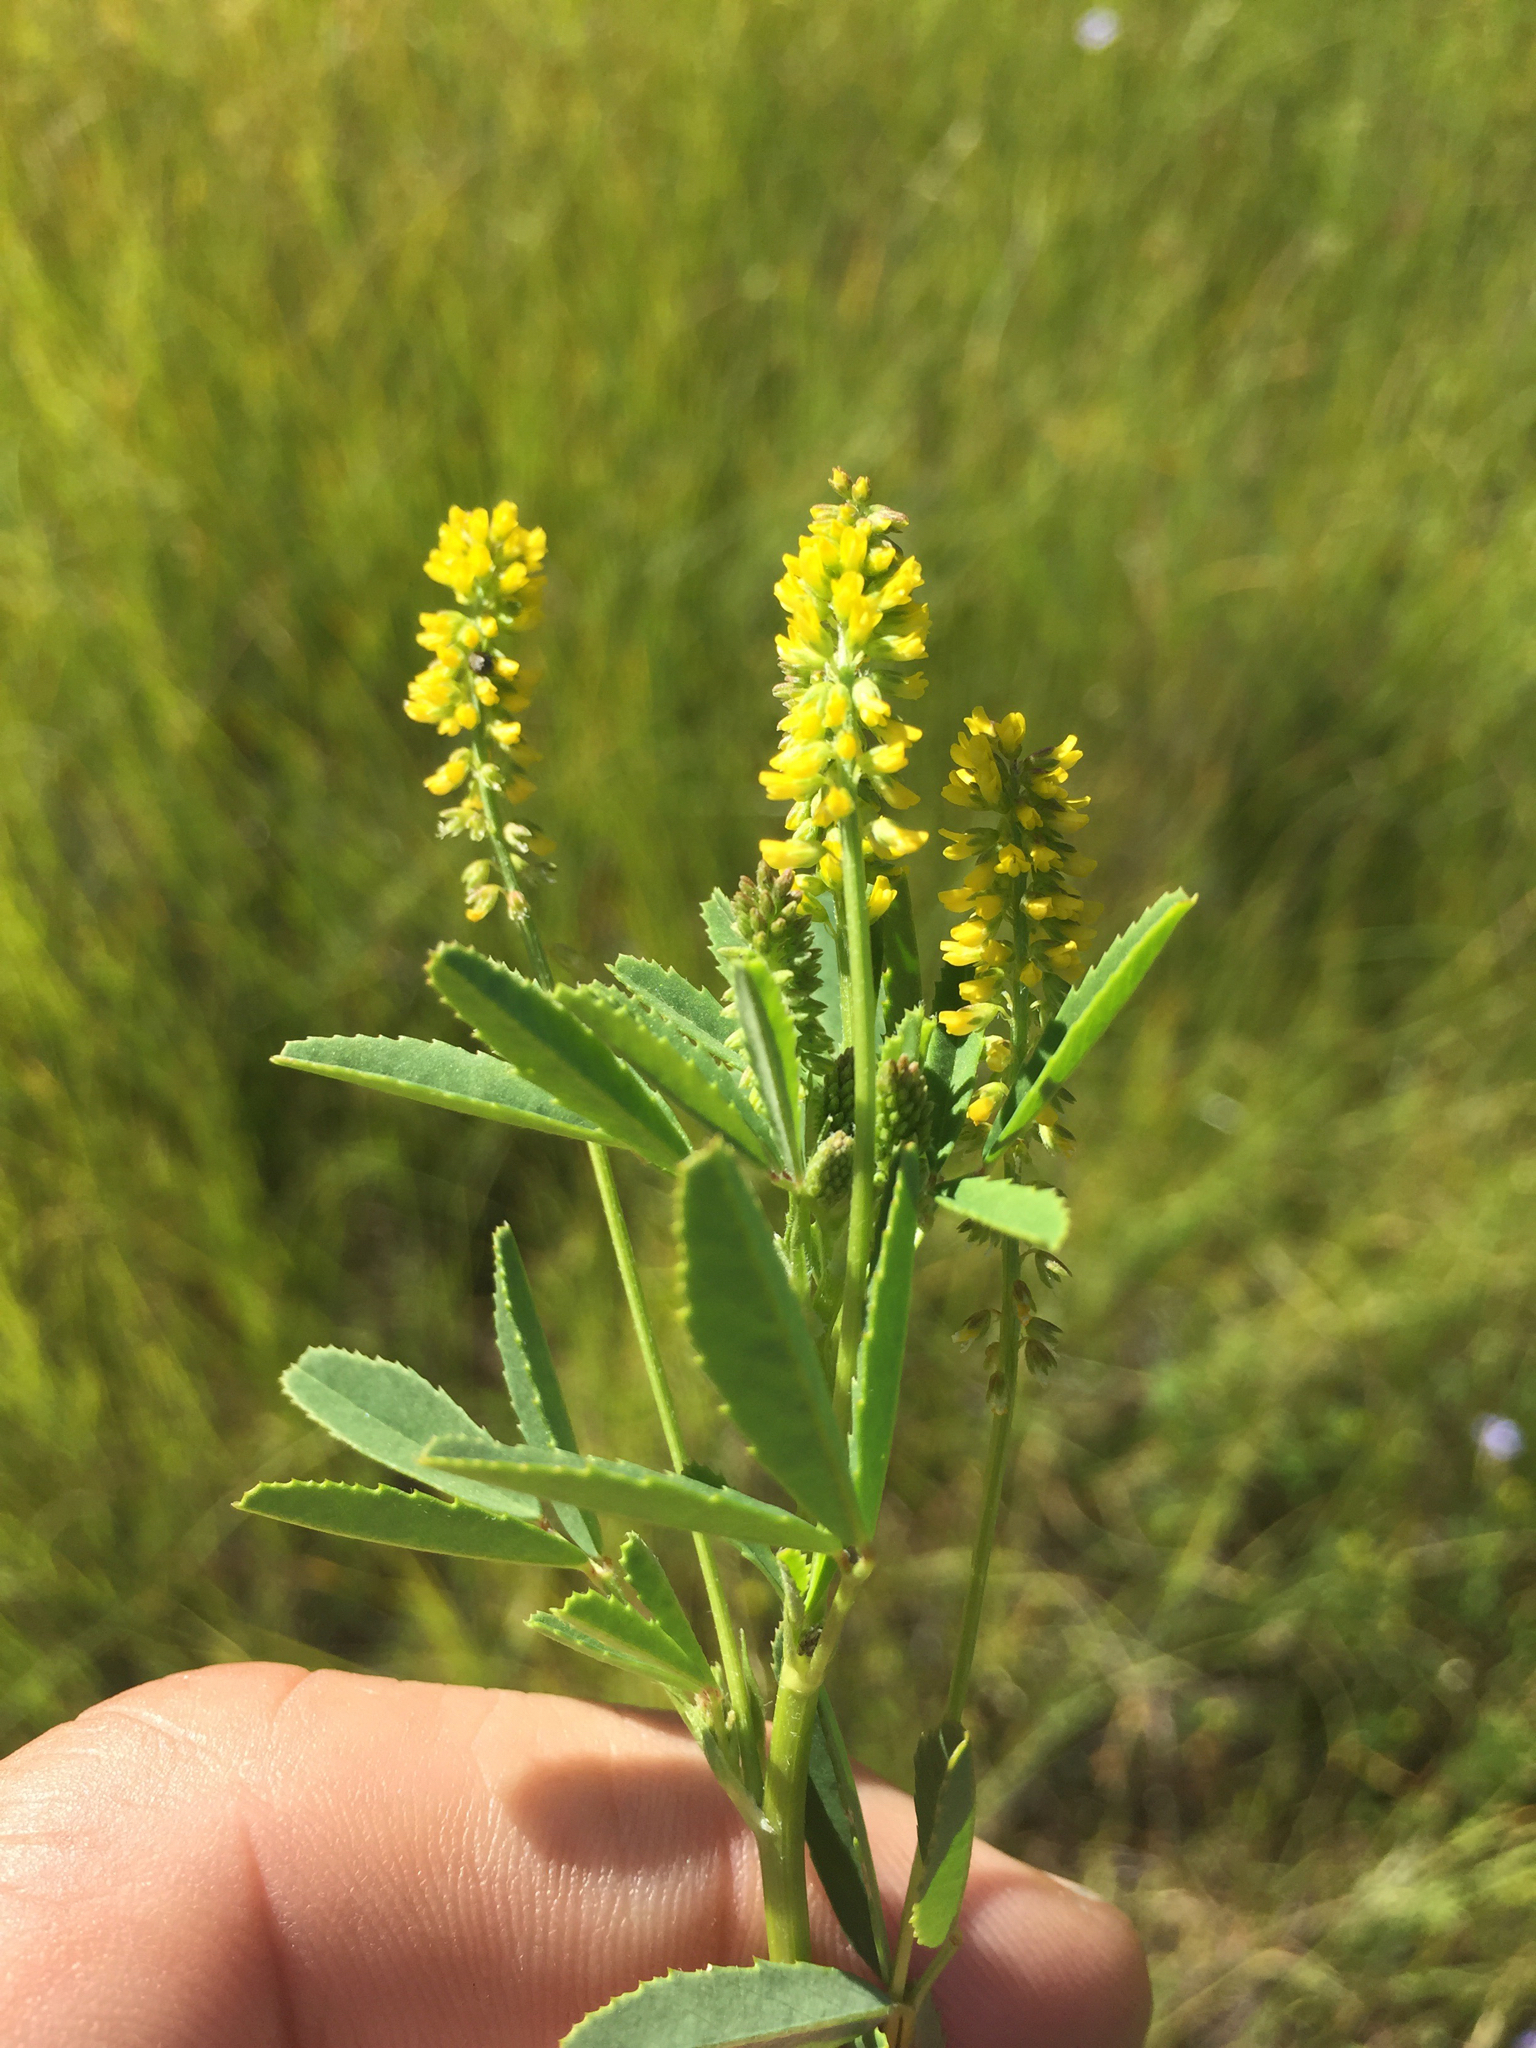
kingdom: Plantae
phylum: Tracheophyta
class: Magnoliopsida
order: Fabales
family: Fabaceae
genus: Melilotus
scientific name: Melilotus indicus
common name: Small melilot
